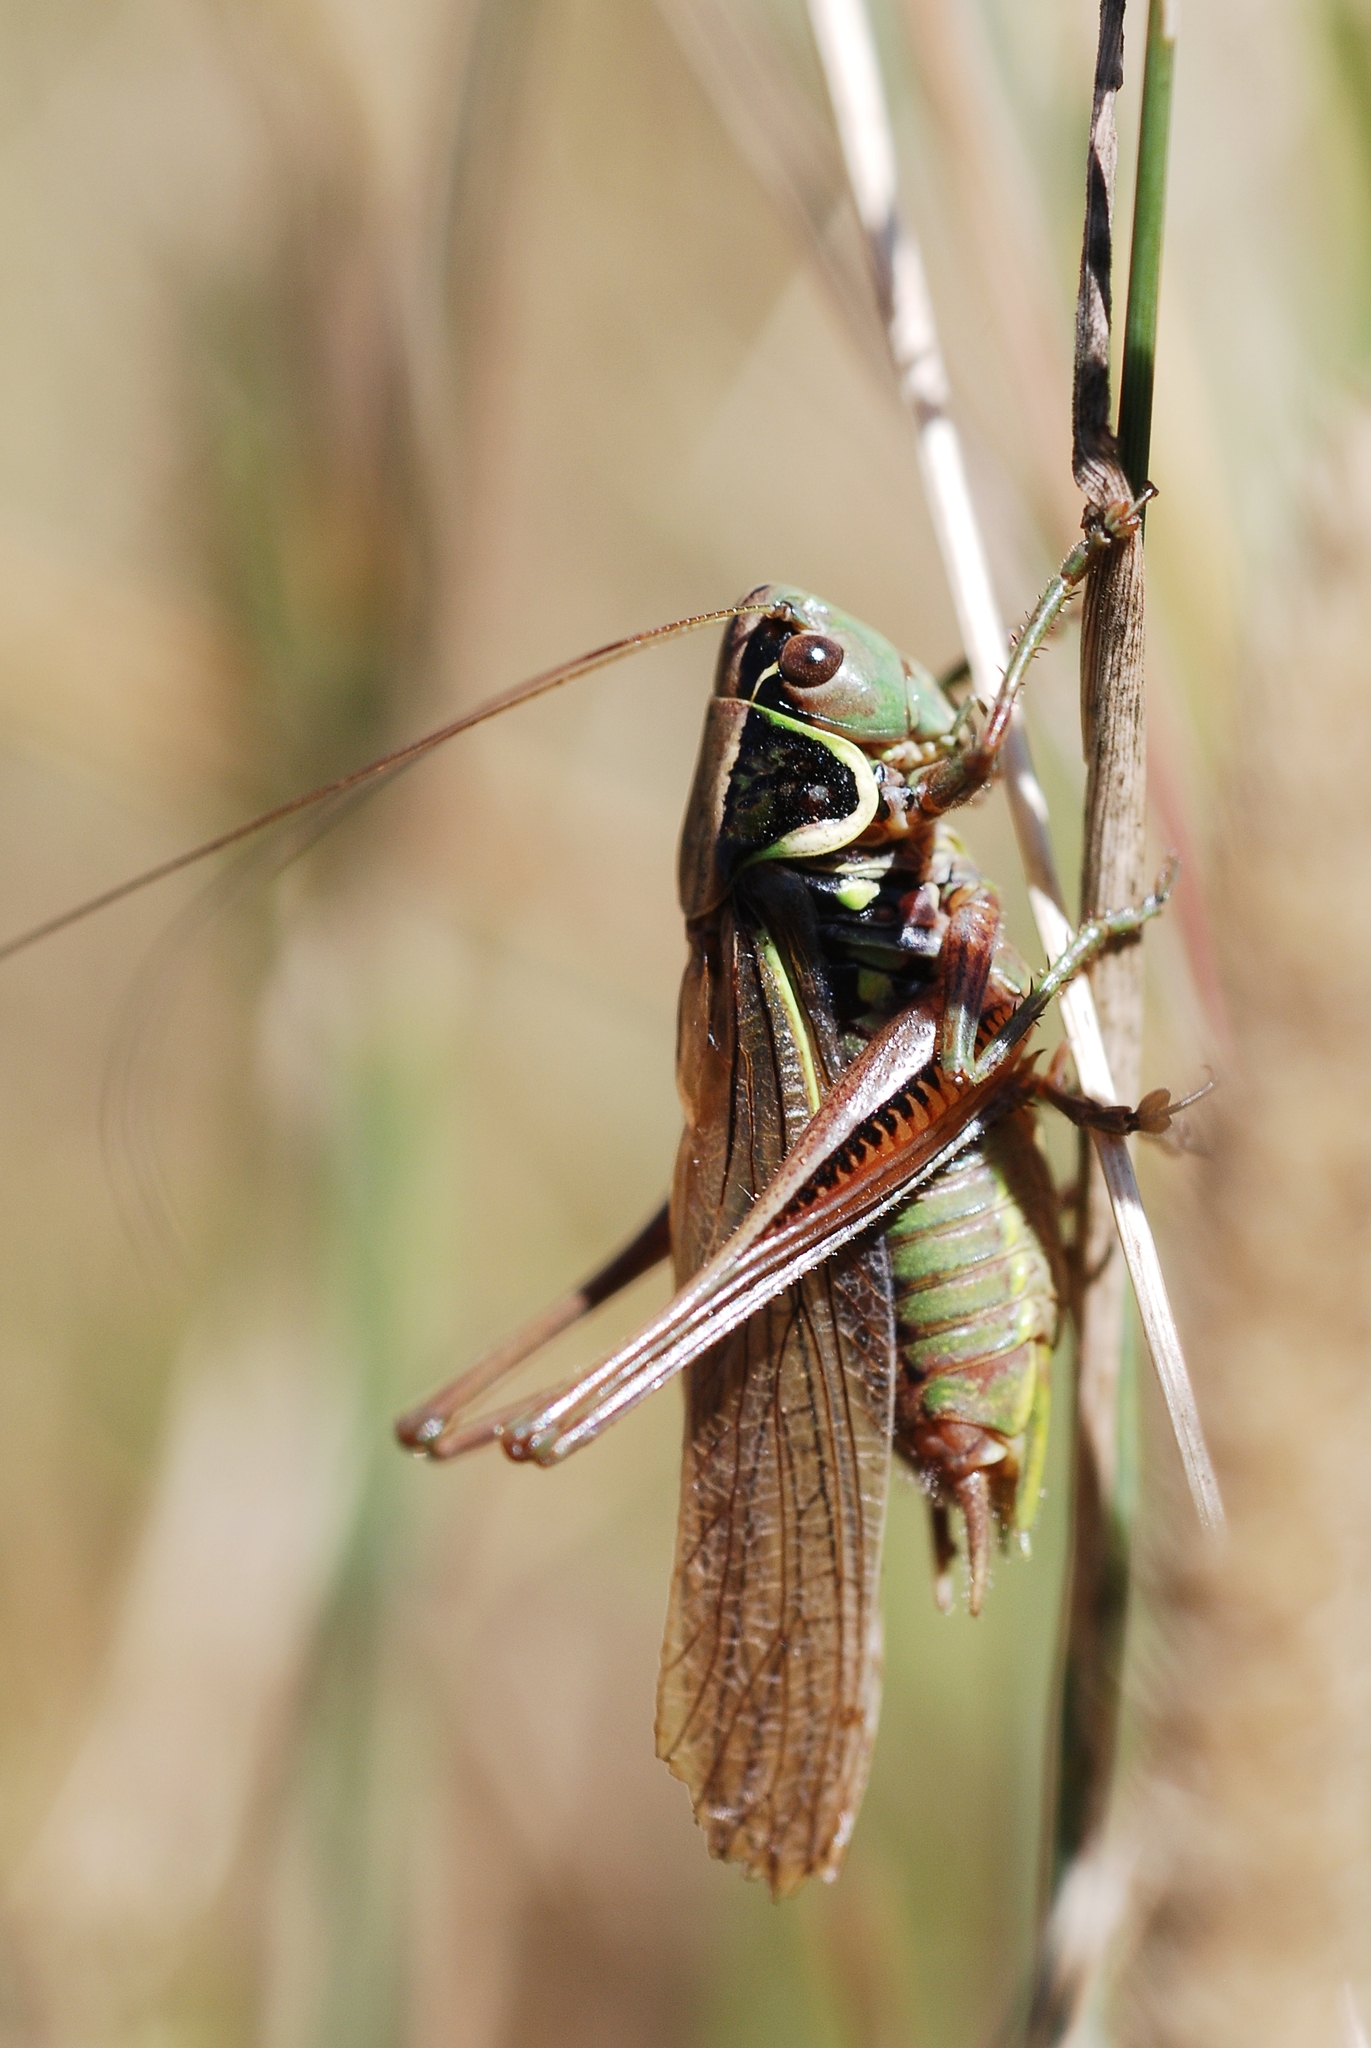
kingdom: Animalia
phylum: Arthropoda
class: Insecta
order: Orthoptera
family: Tettigoniidae
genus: Roeseliana
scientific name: Roeseliana roeselii
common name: Roesel's bush cricket
